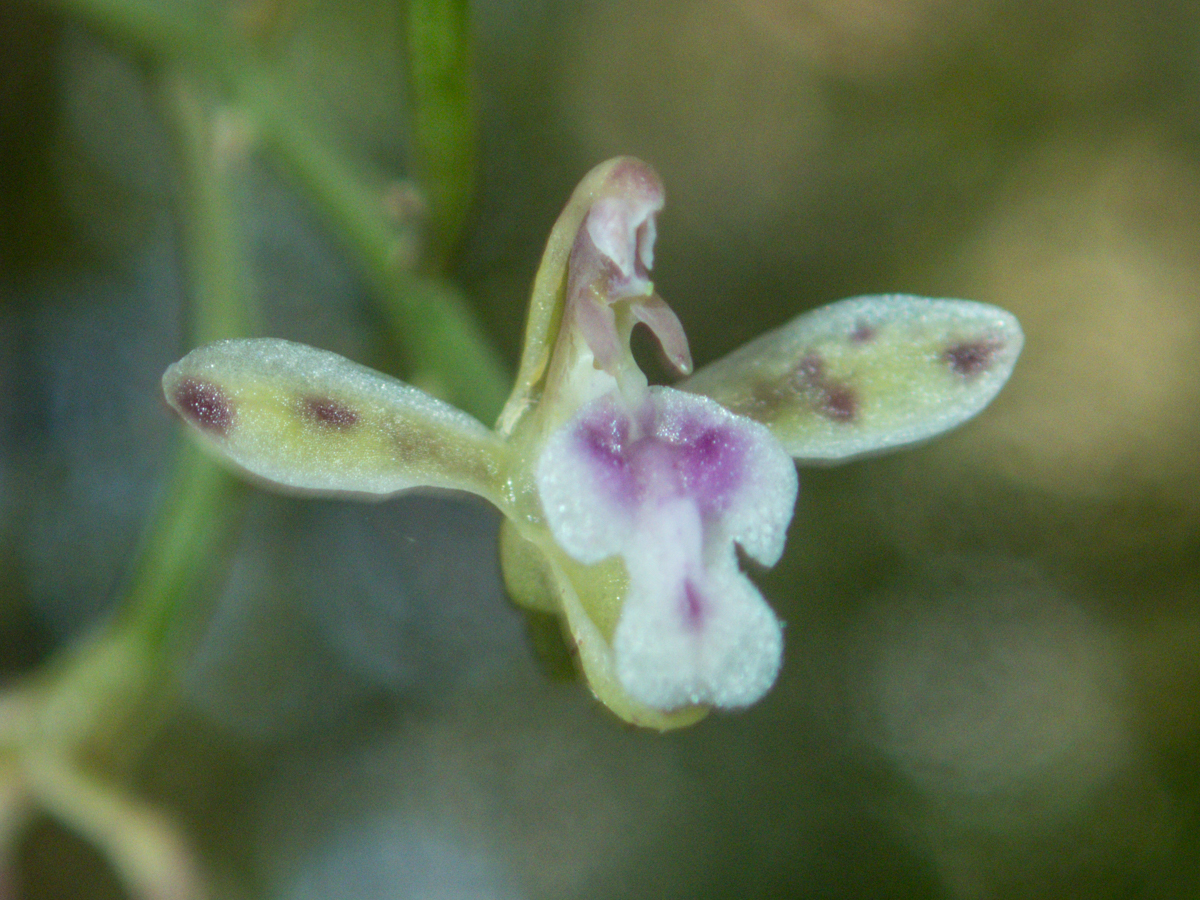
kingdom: Plantae
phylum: Tracheophyta
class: Liliopsida
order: Asparagales
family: Orchidaceae
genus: Acriopsis
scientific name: Acriopsis liliifolia
